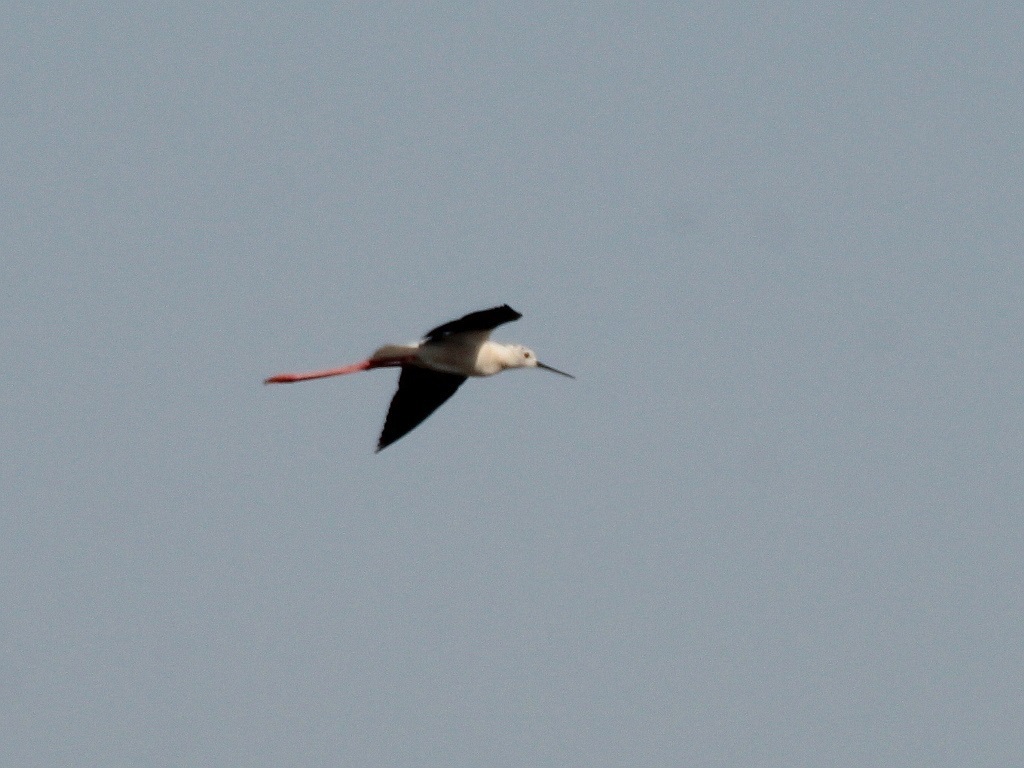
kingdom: Animalia
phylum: Chordata
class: Aves
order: Charadriiformes
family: Recurvirostridae
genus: Himantopus
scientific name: Himantopus himantopus
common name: Black-winged stilt
